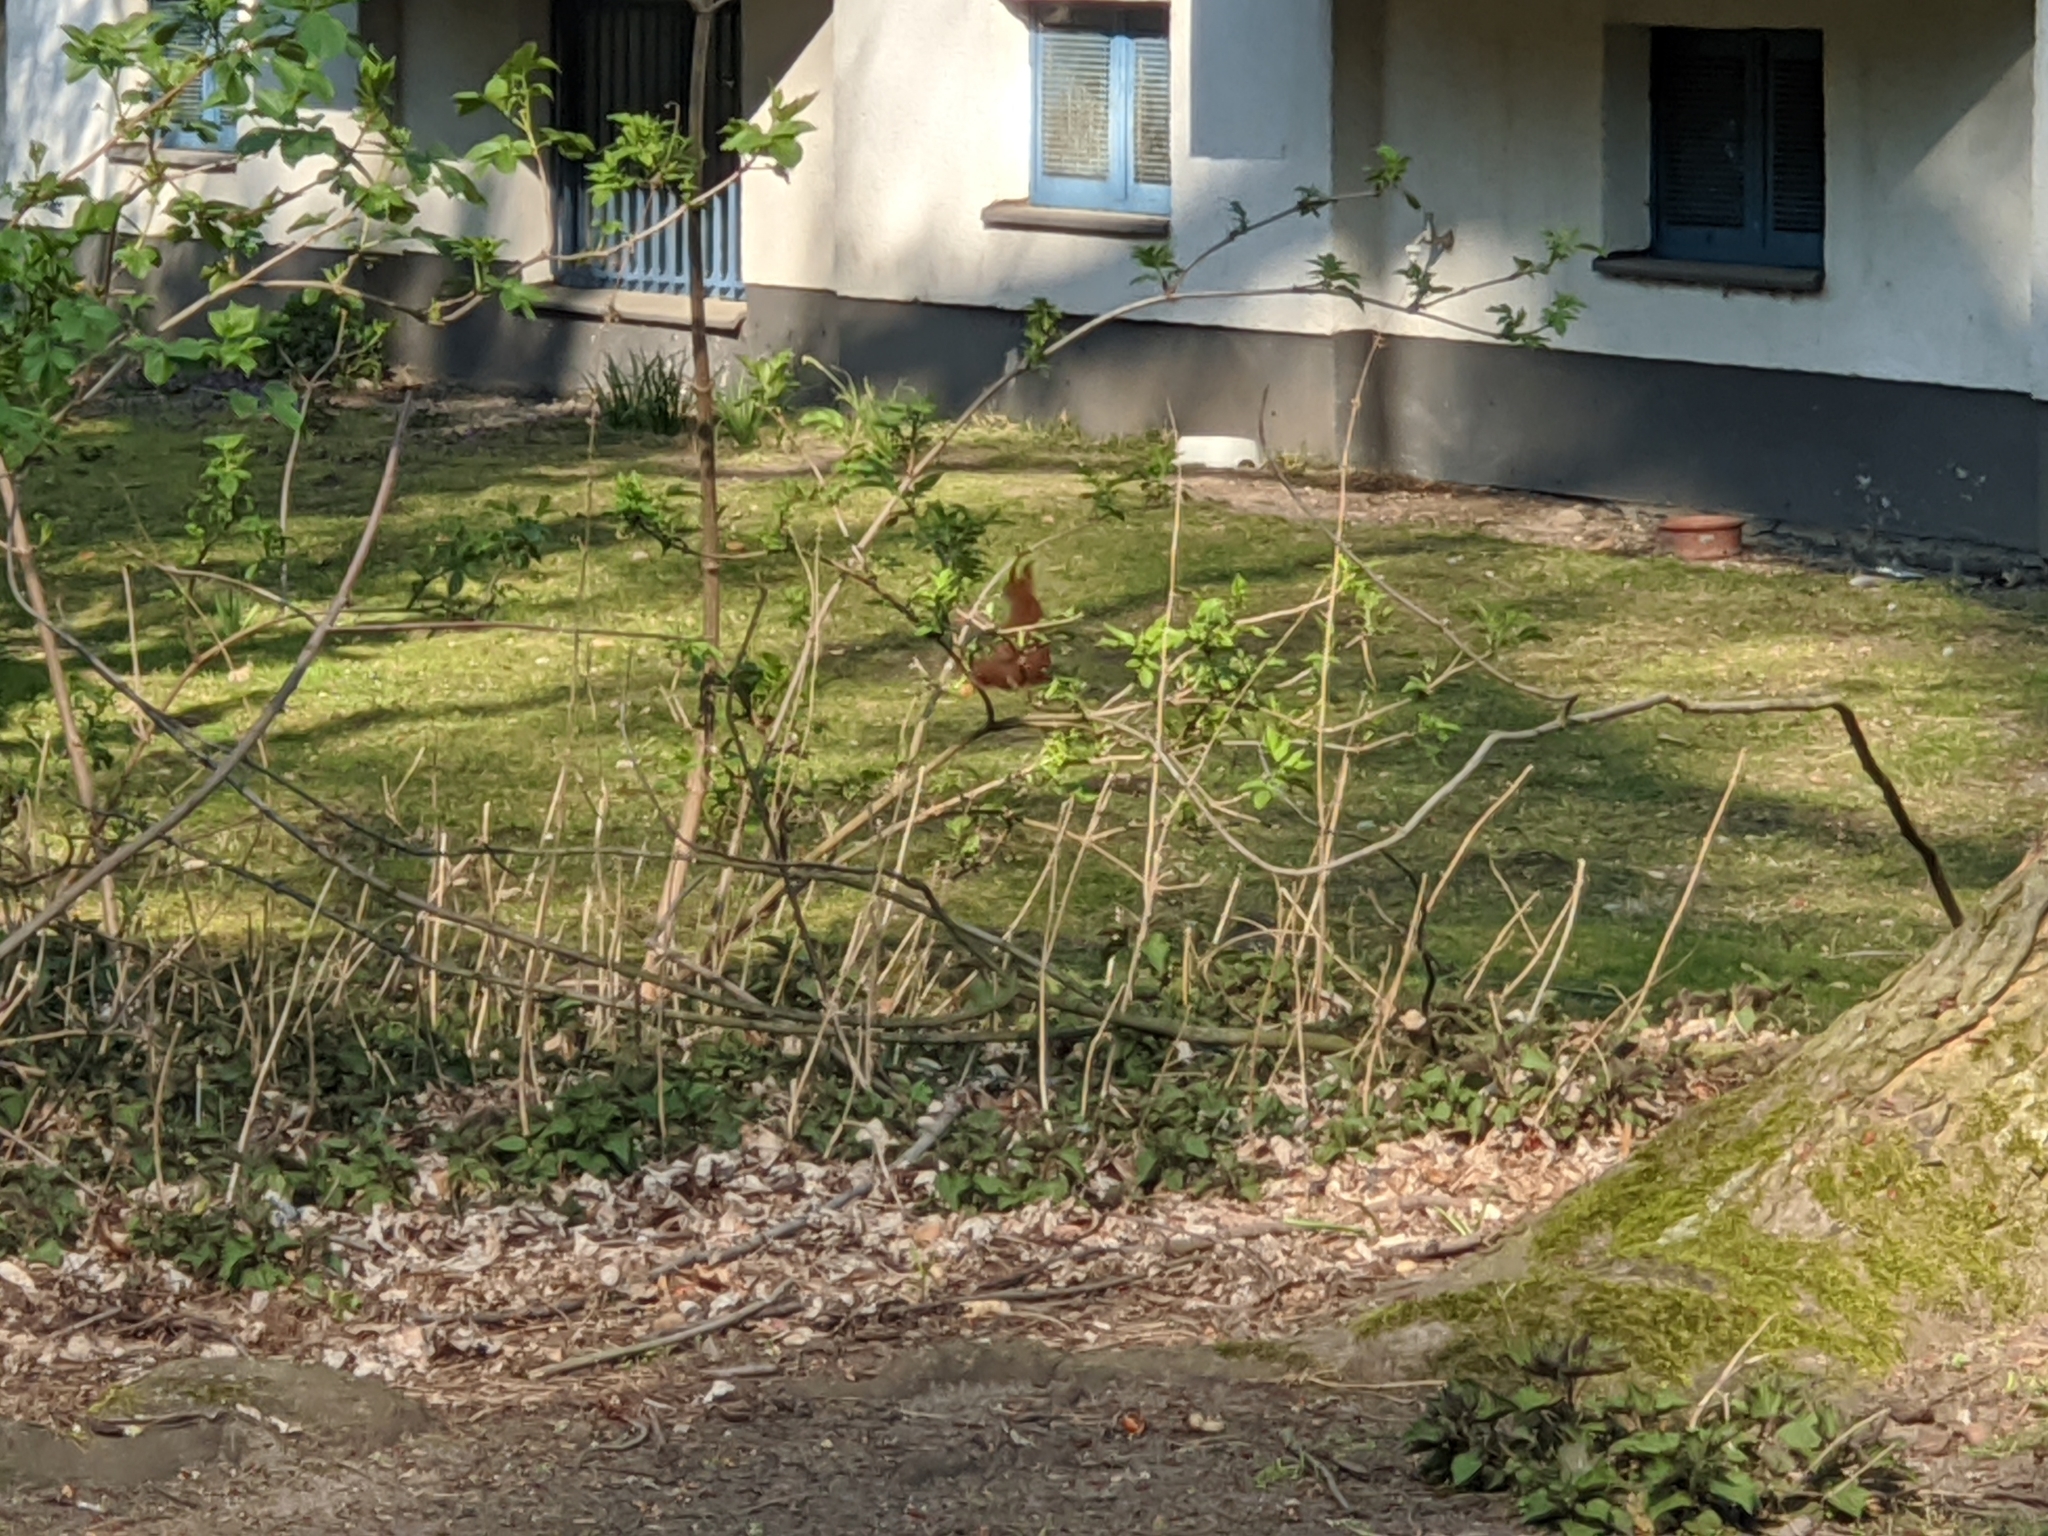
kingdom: Animalia
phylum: Chordata
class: Mammalia
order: Rodentia
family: Sciuridae
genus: Sciurus
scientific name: Sciurus vulgaris
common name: Eurasian red squirrel
